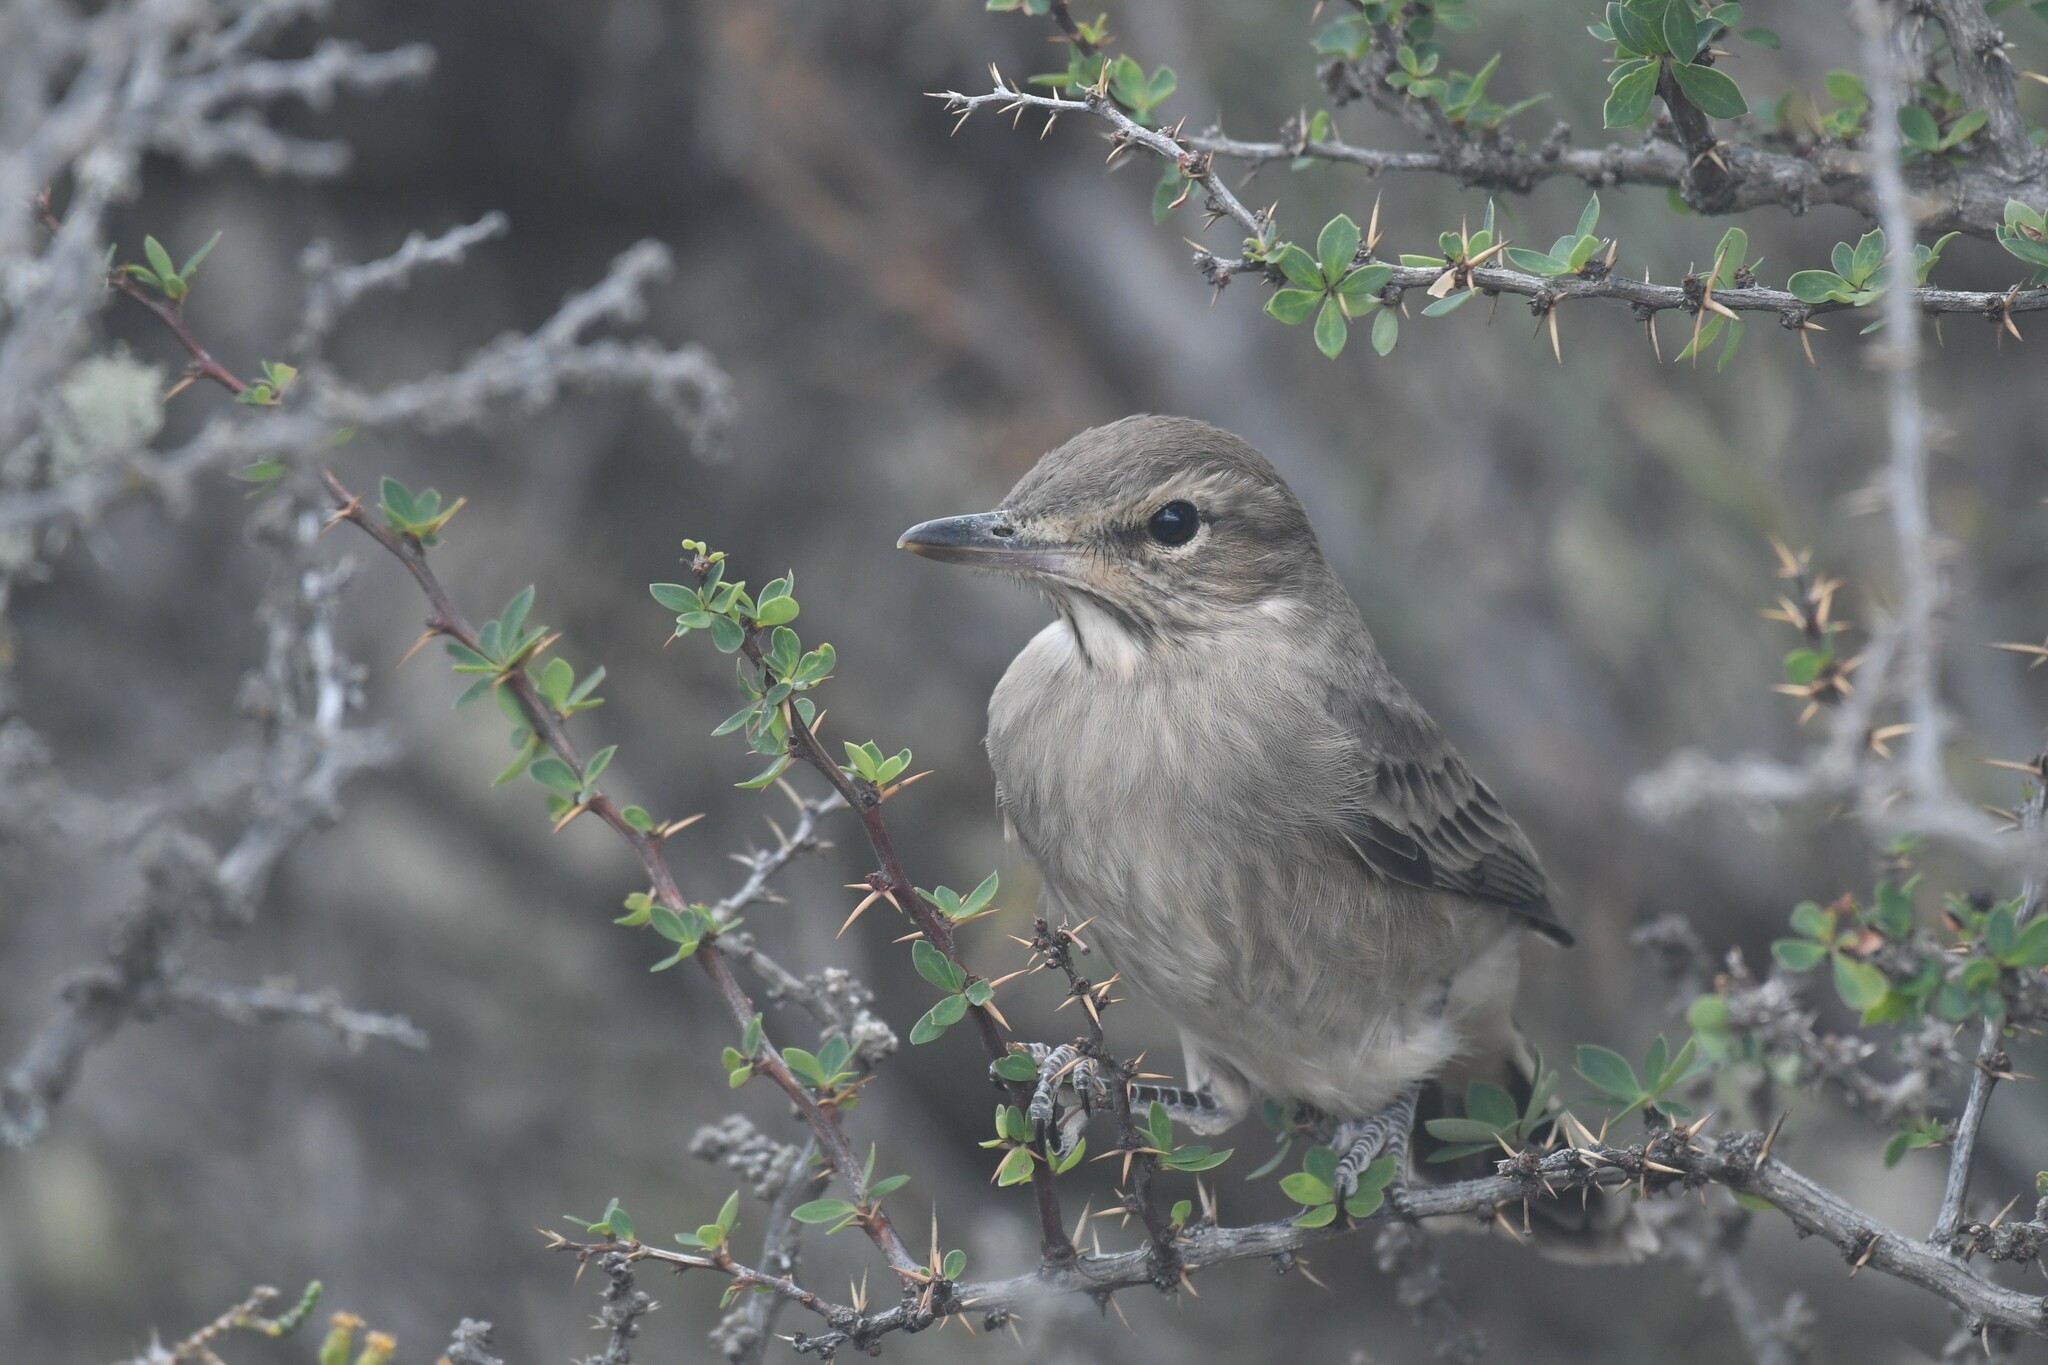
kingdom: Animalia
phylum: Chordata
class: Aves
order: Passeriformes
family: Tyrannidae
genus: Agriornis
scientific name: Agriornis micropterus
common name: Grey-bellied shrike-tyrant
